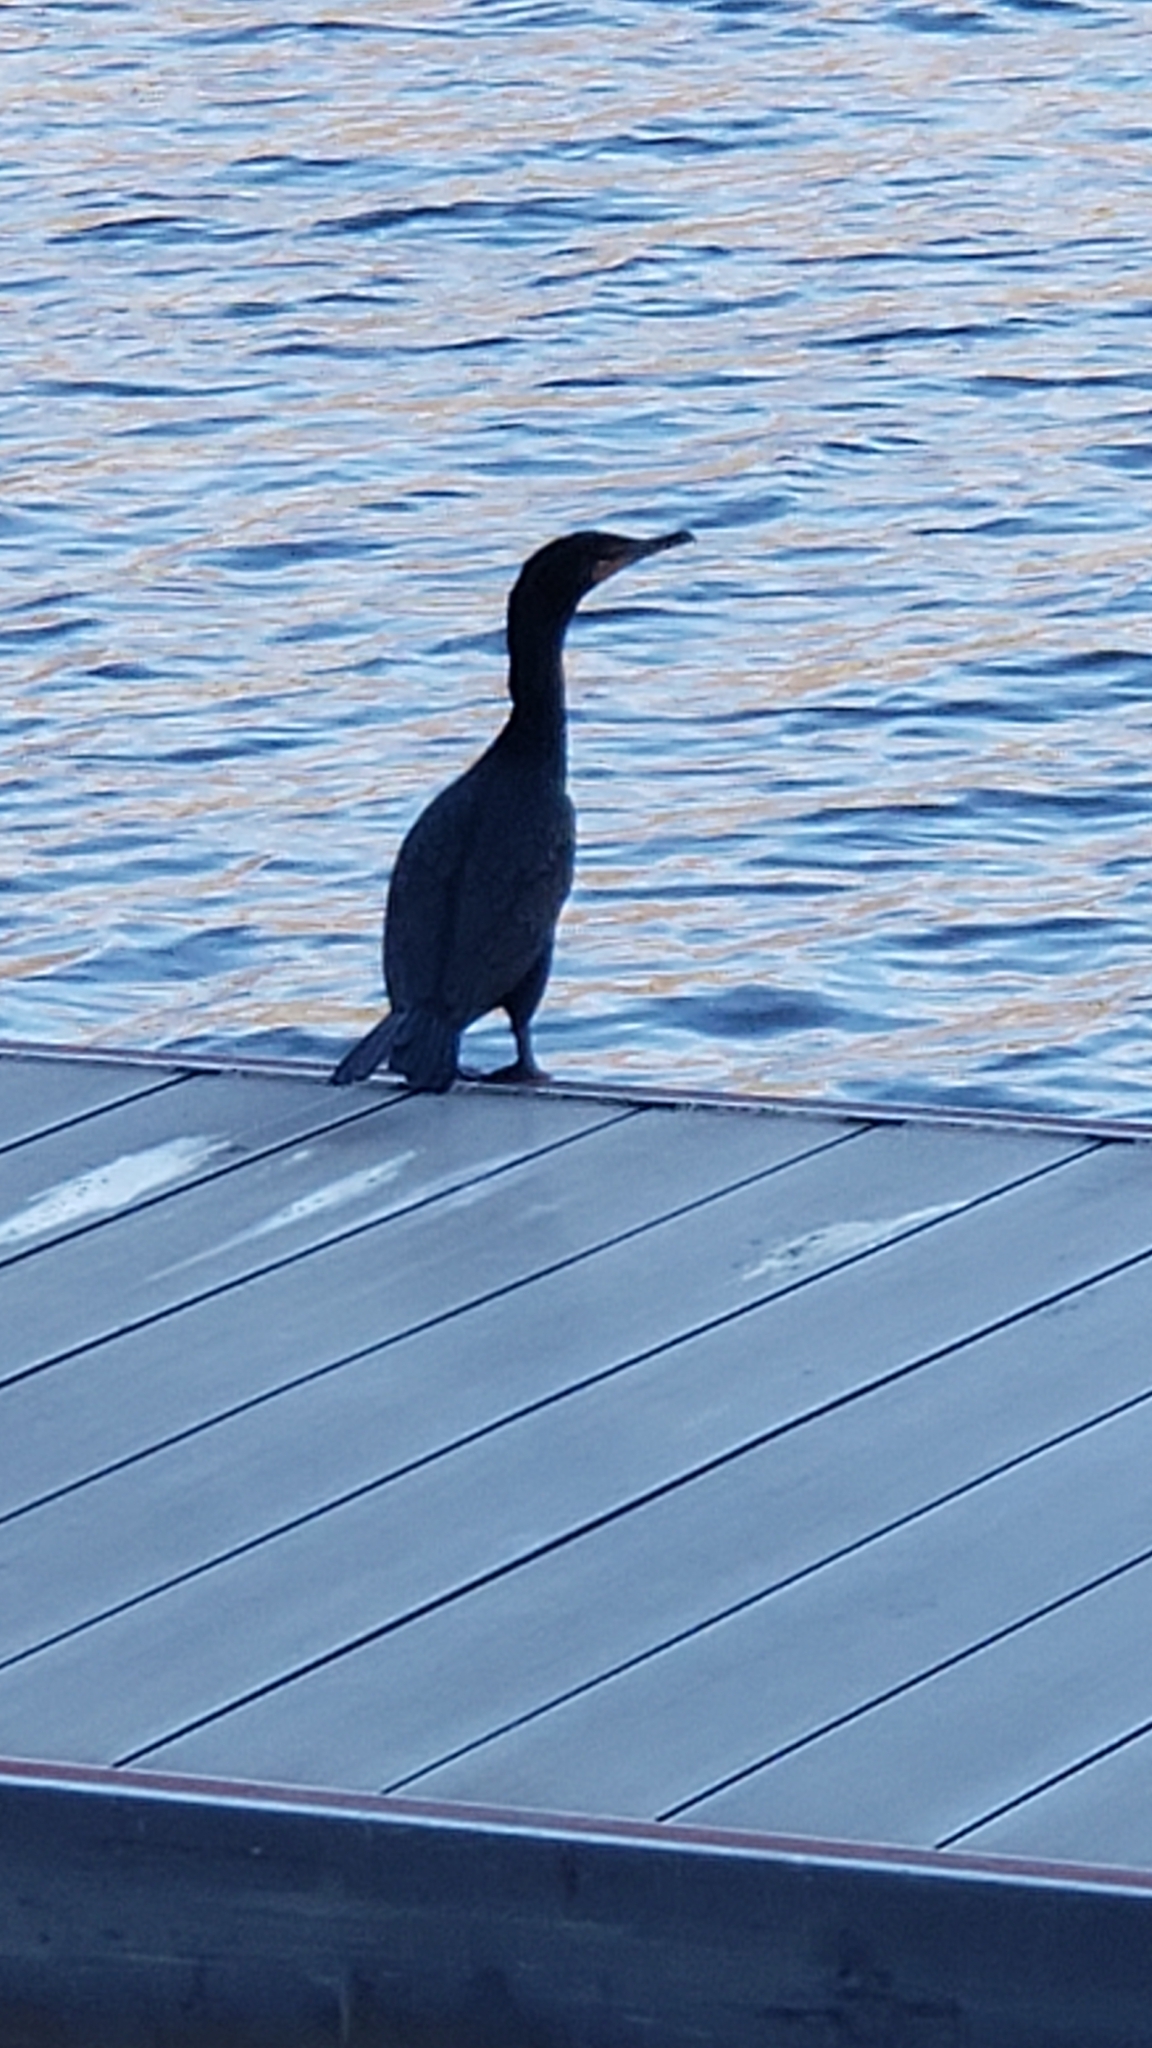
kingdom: Animalia
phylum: Chordata
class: Aves
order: Suliformes
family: Phalacrocoracidae
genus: Phalacrocorax
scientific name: Phalacrocorax auritus
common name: Double-crested cormorant
